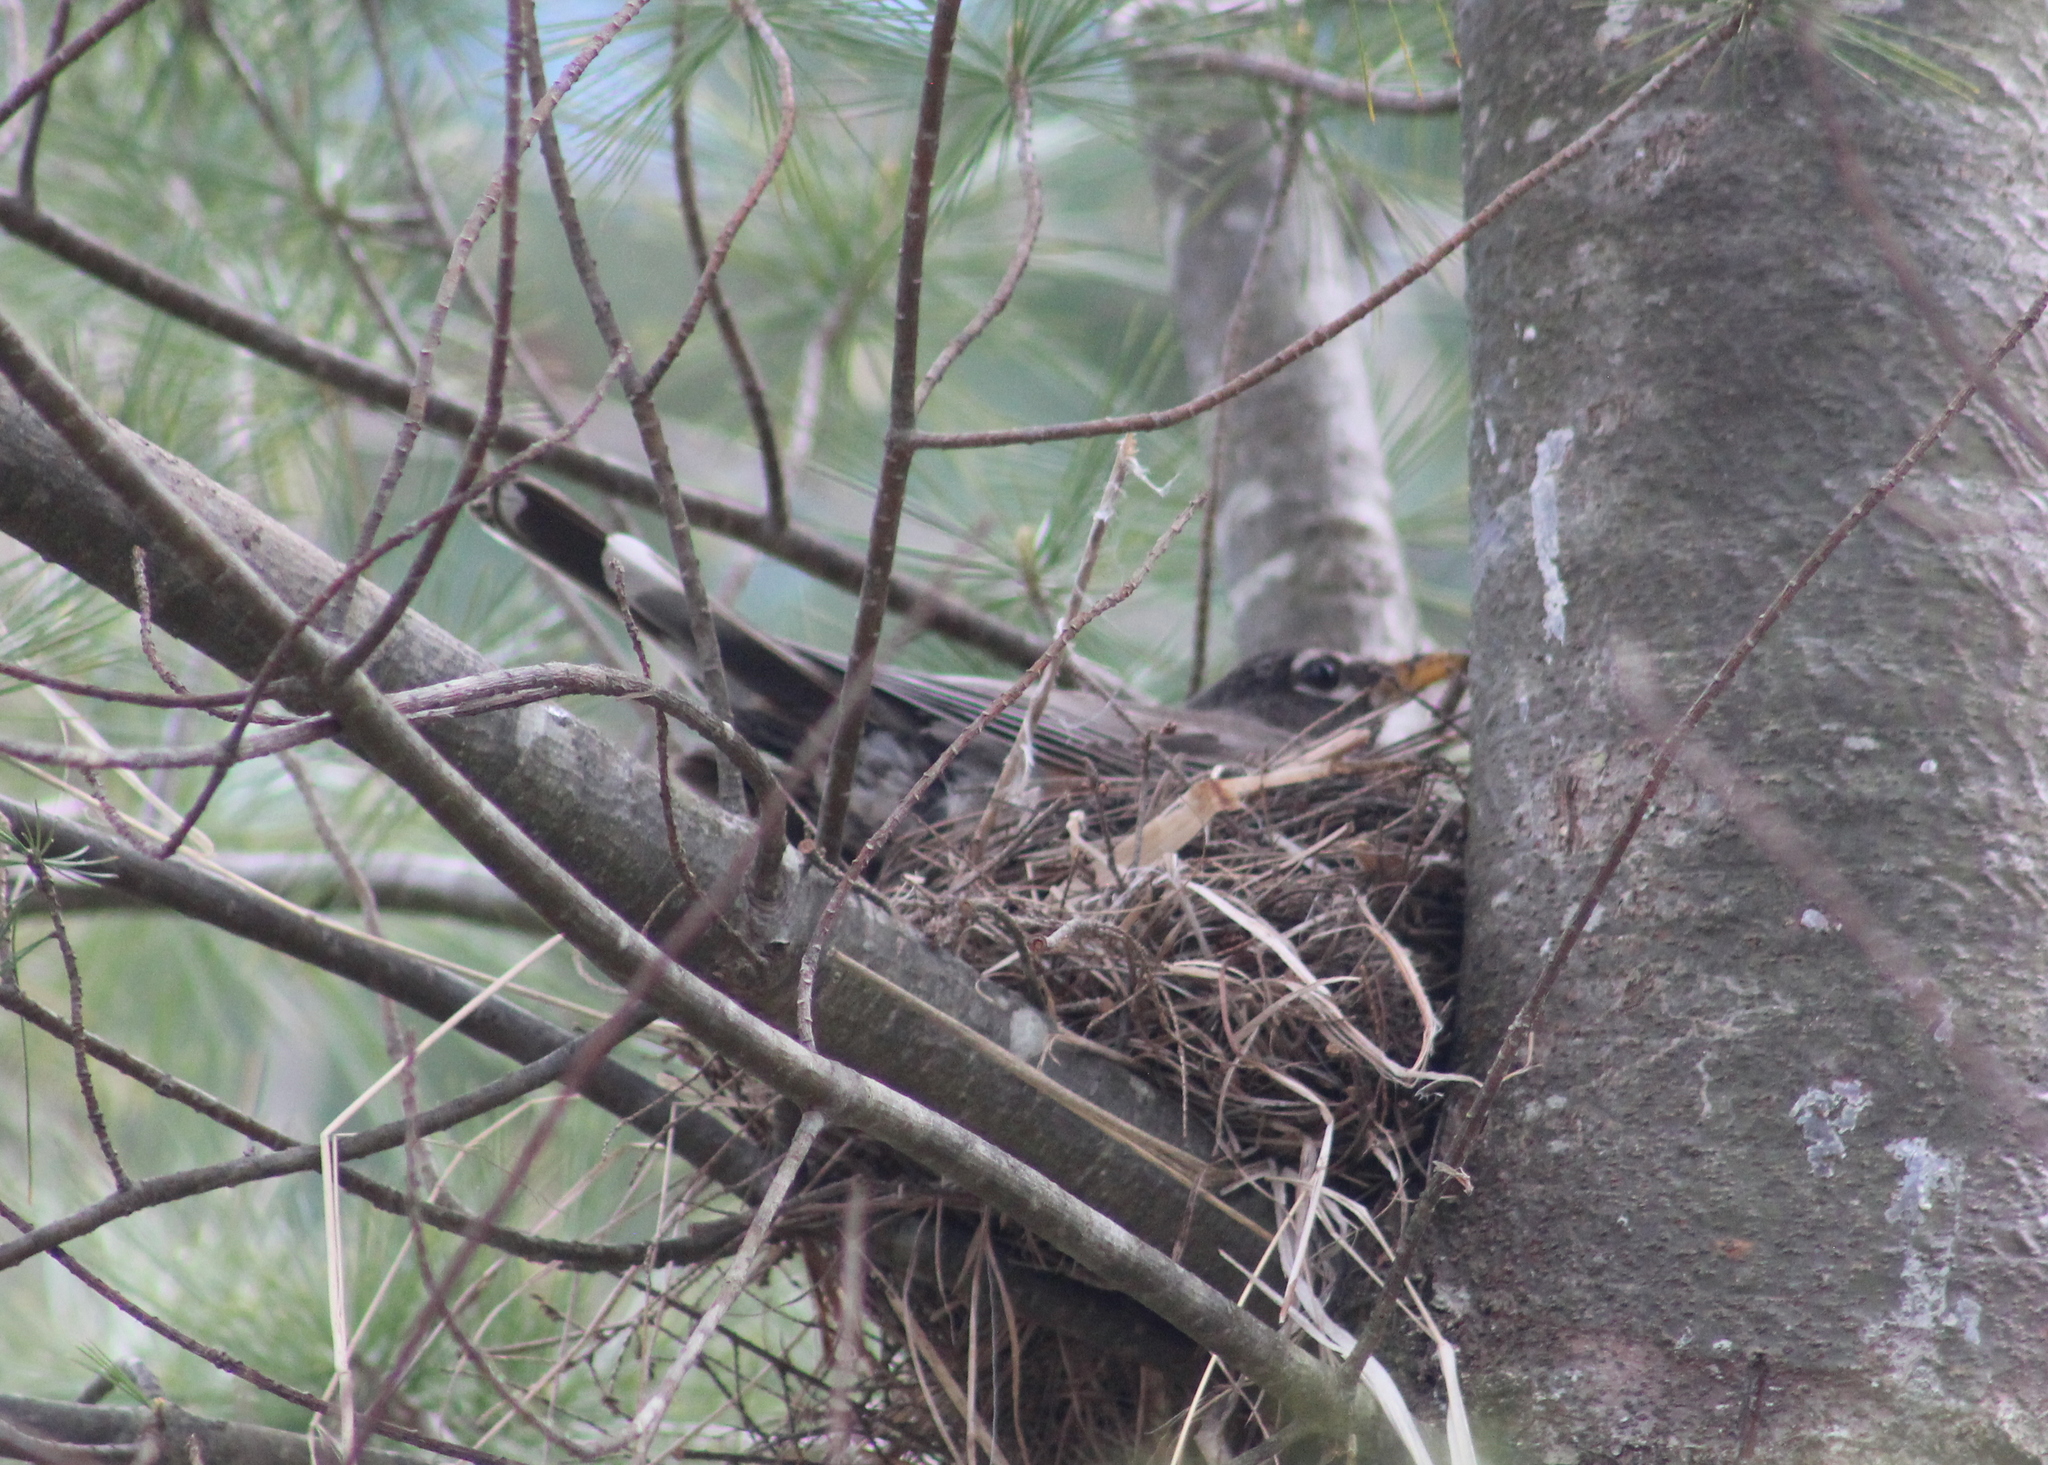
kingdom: Animalia
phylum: Chordata
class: Aves
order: Passeriformes
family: Turdidae
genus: Turdus
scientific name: Turdus migratorius
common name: American robin
